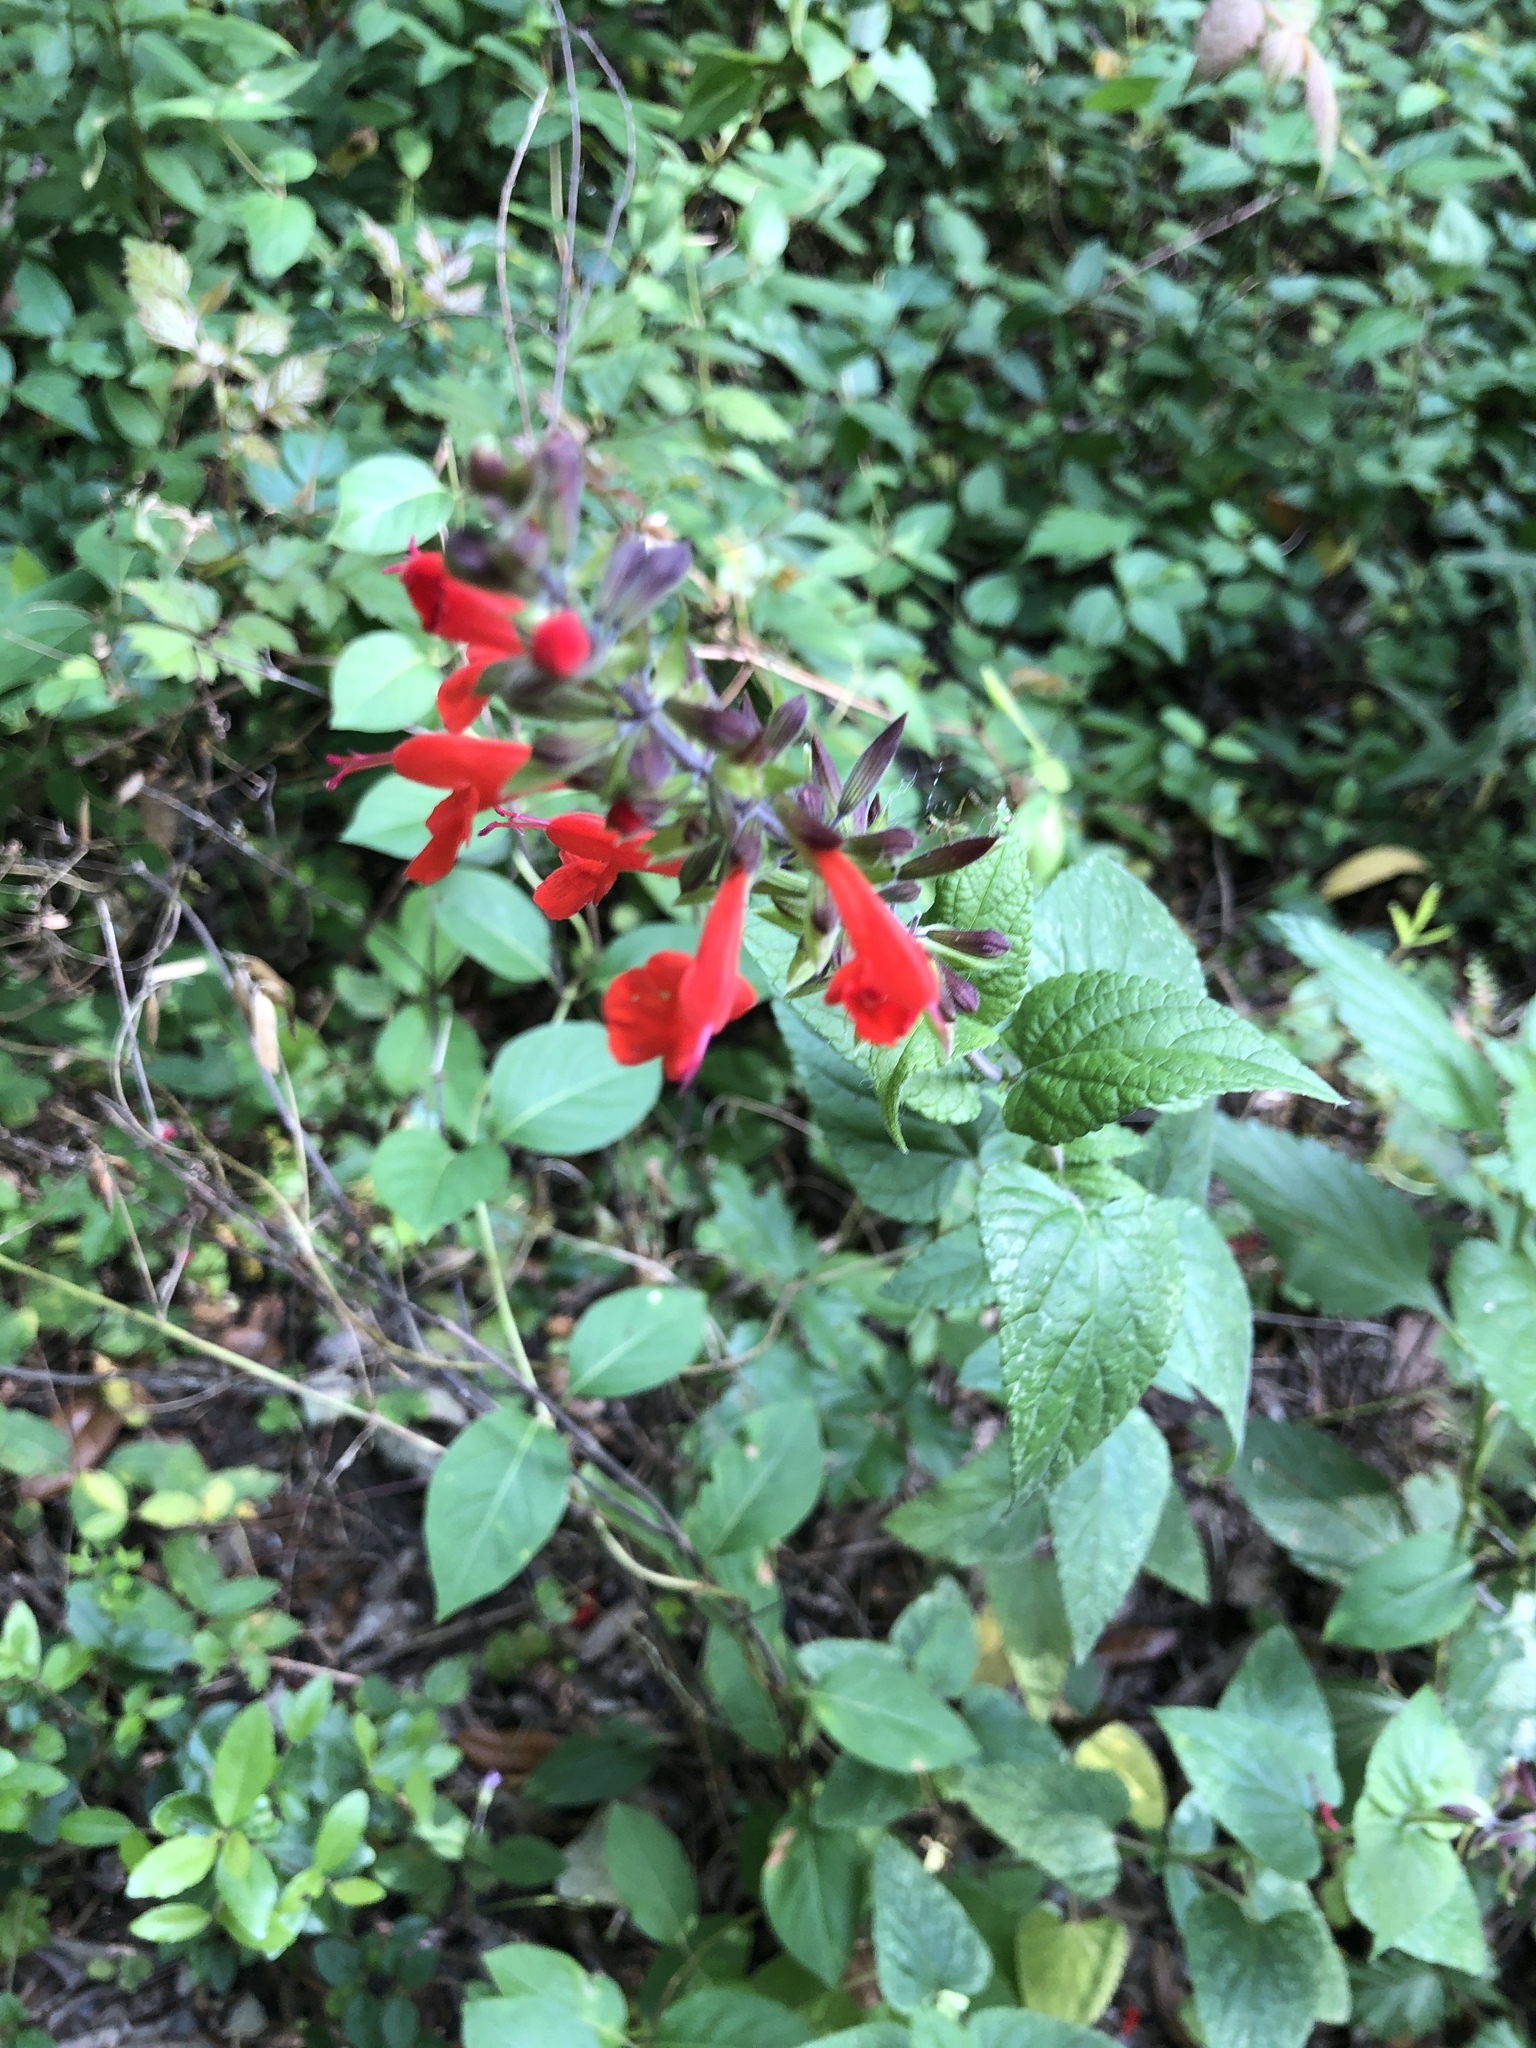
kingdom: Plantae
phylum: Tracheophyta
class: Magnoliopsida
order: Lamiales
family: Lamiaceae
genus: Salvia
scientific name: Salvia coccinea
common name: Blood sage
